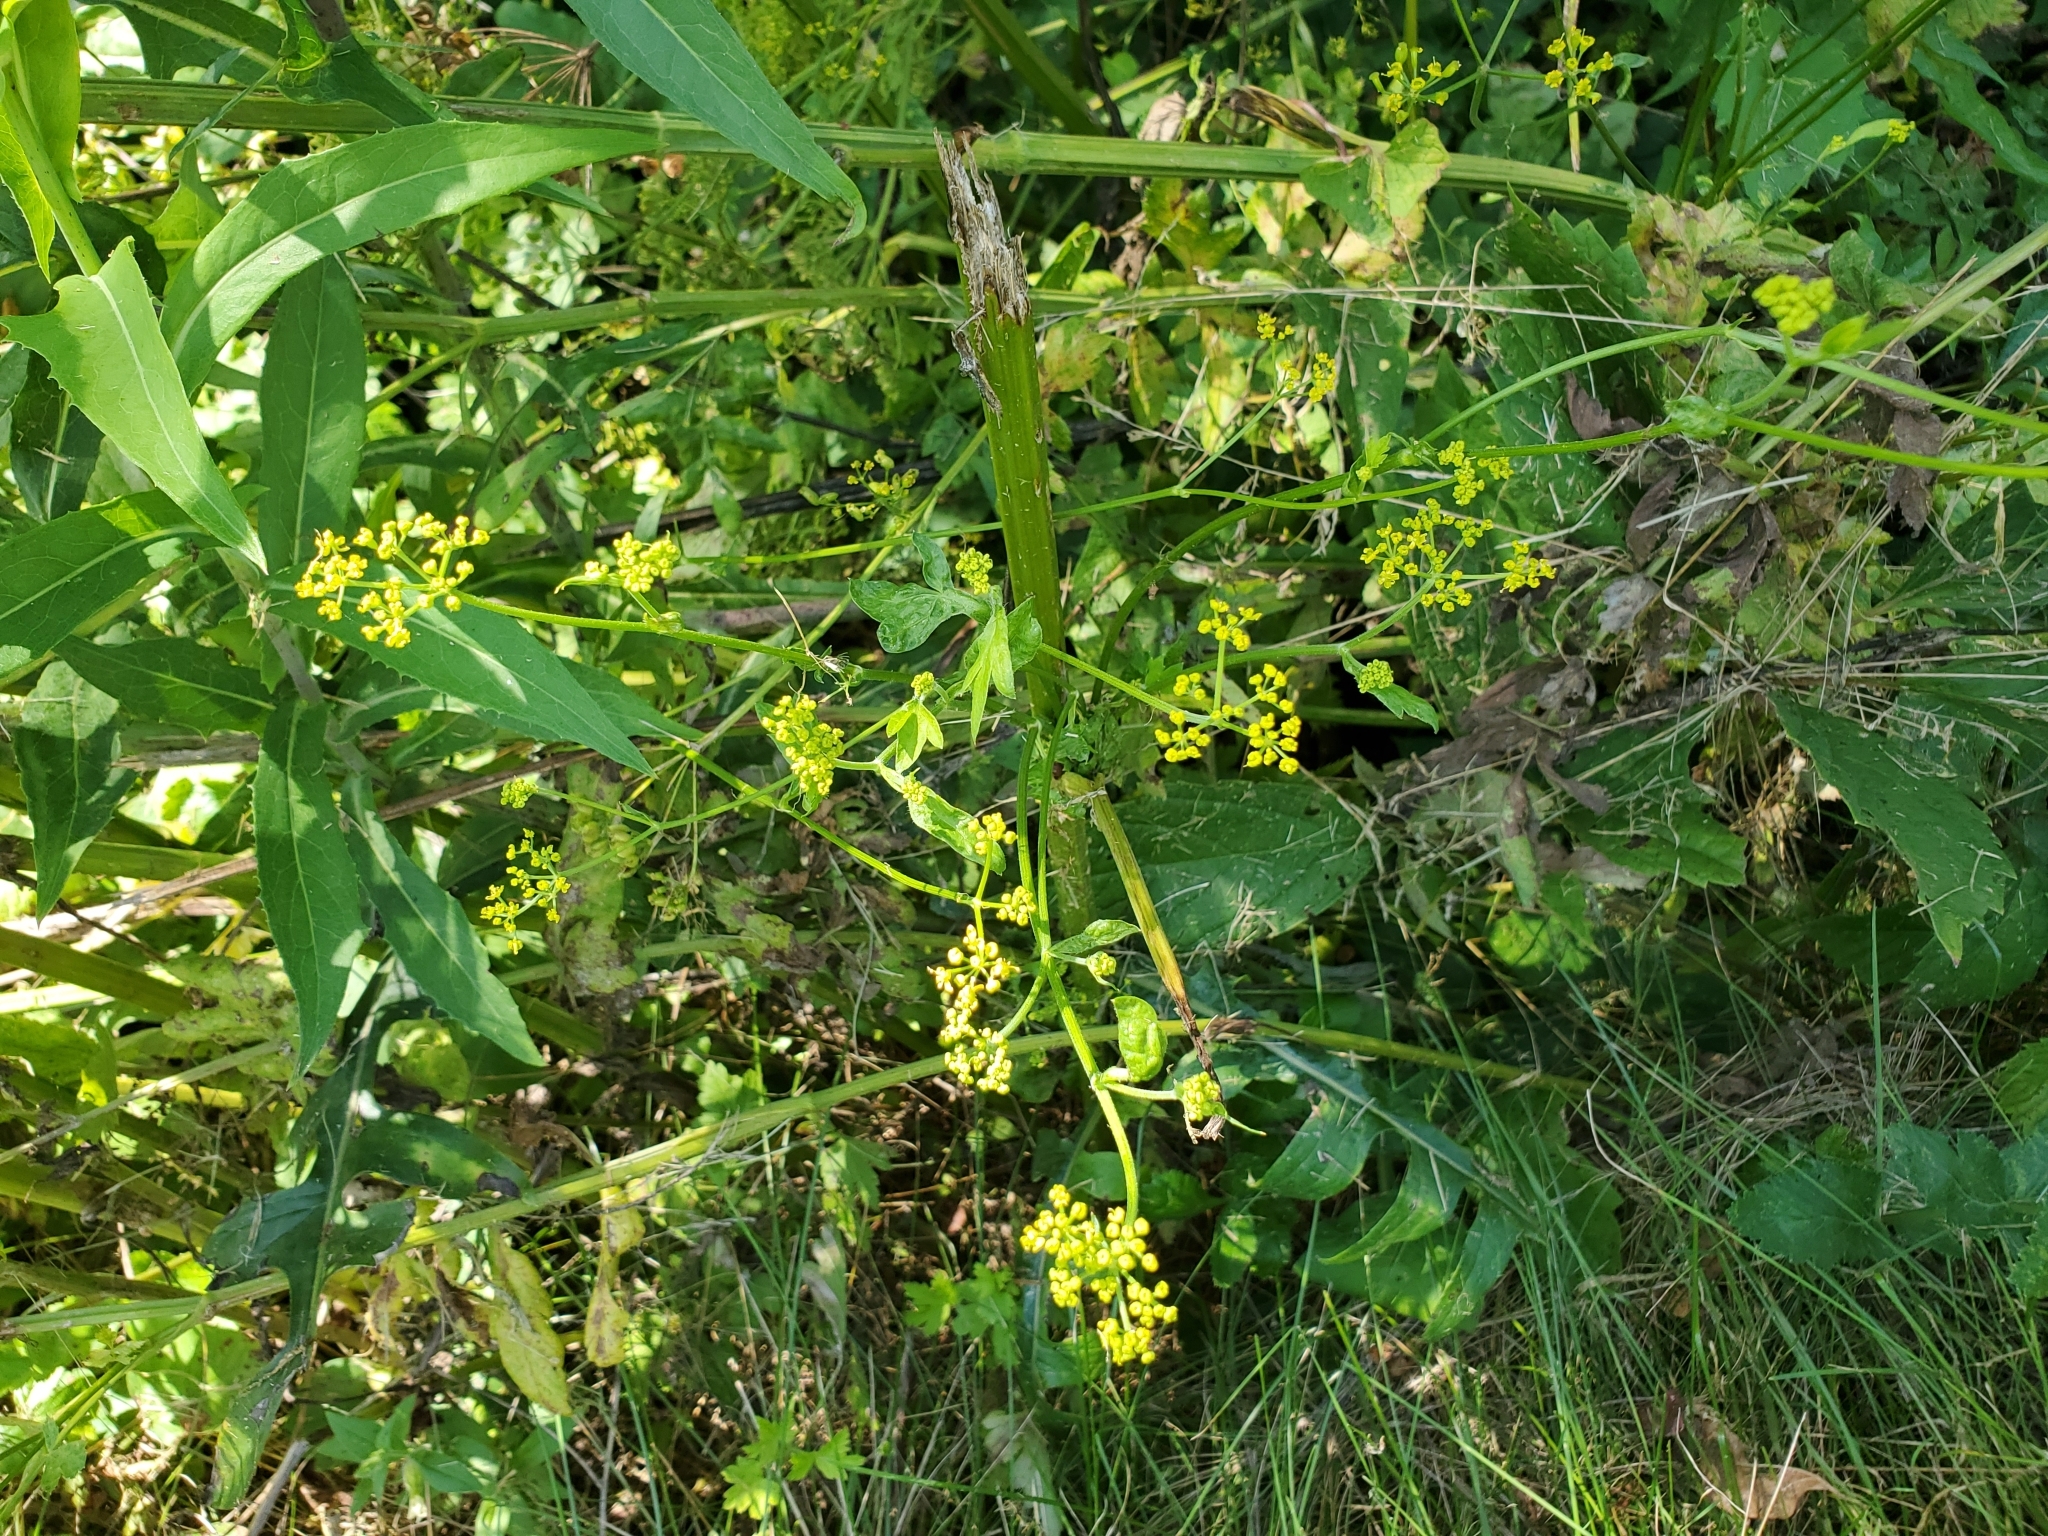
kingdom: Plantae
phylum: Tracheophyta
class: Magnoliopsida
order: Apiales
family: Apiaceae
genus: Pastinaca
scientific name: Pastinaca sativa
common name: Wild parsnip
